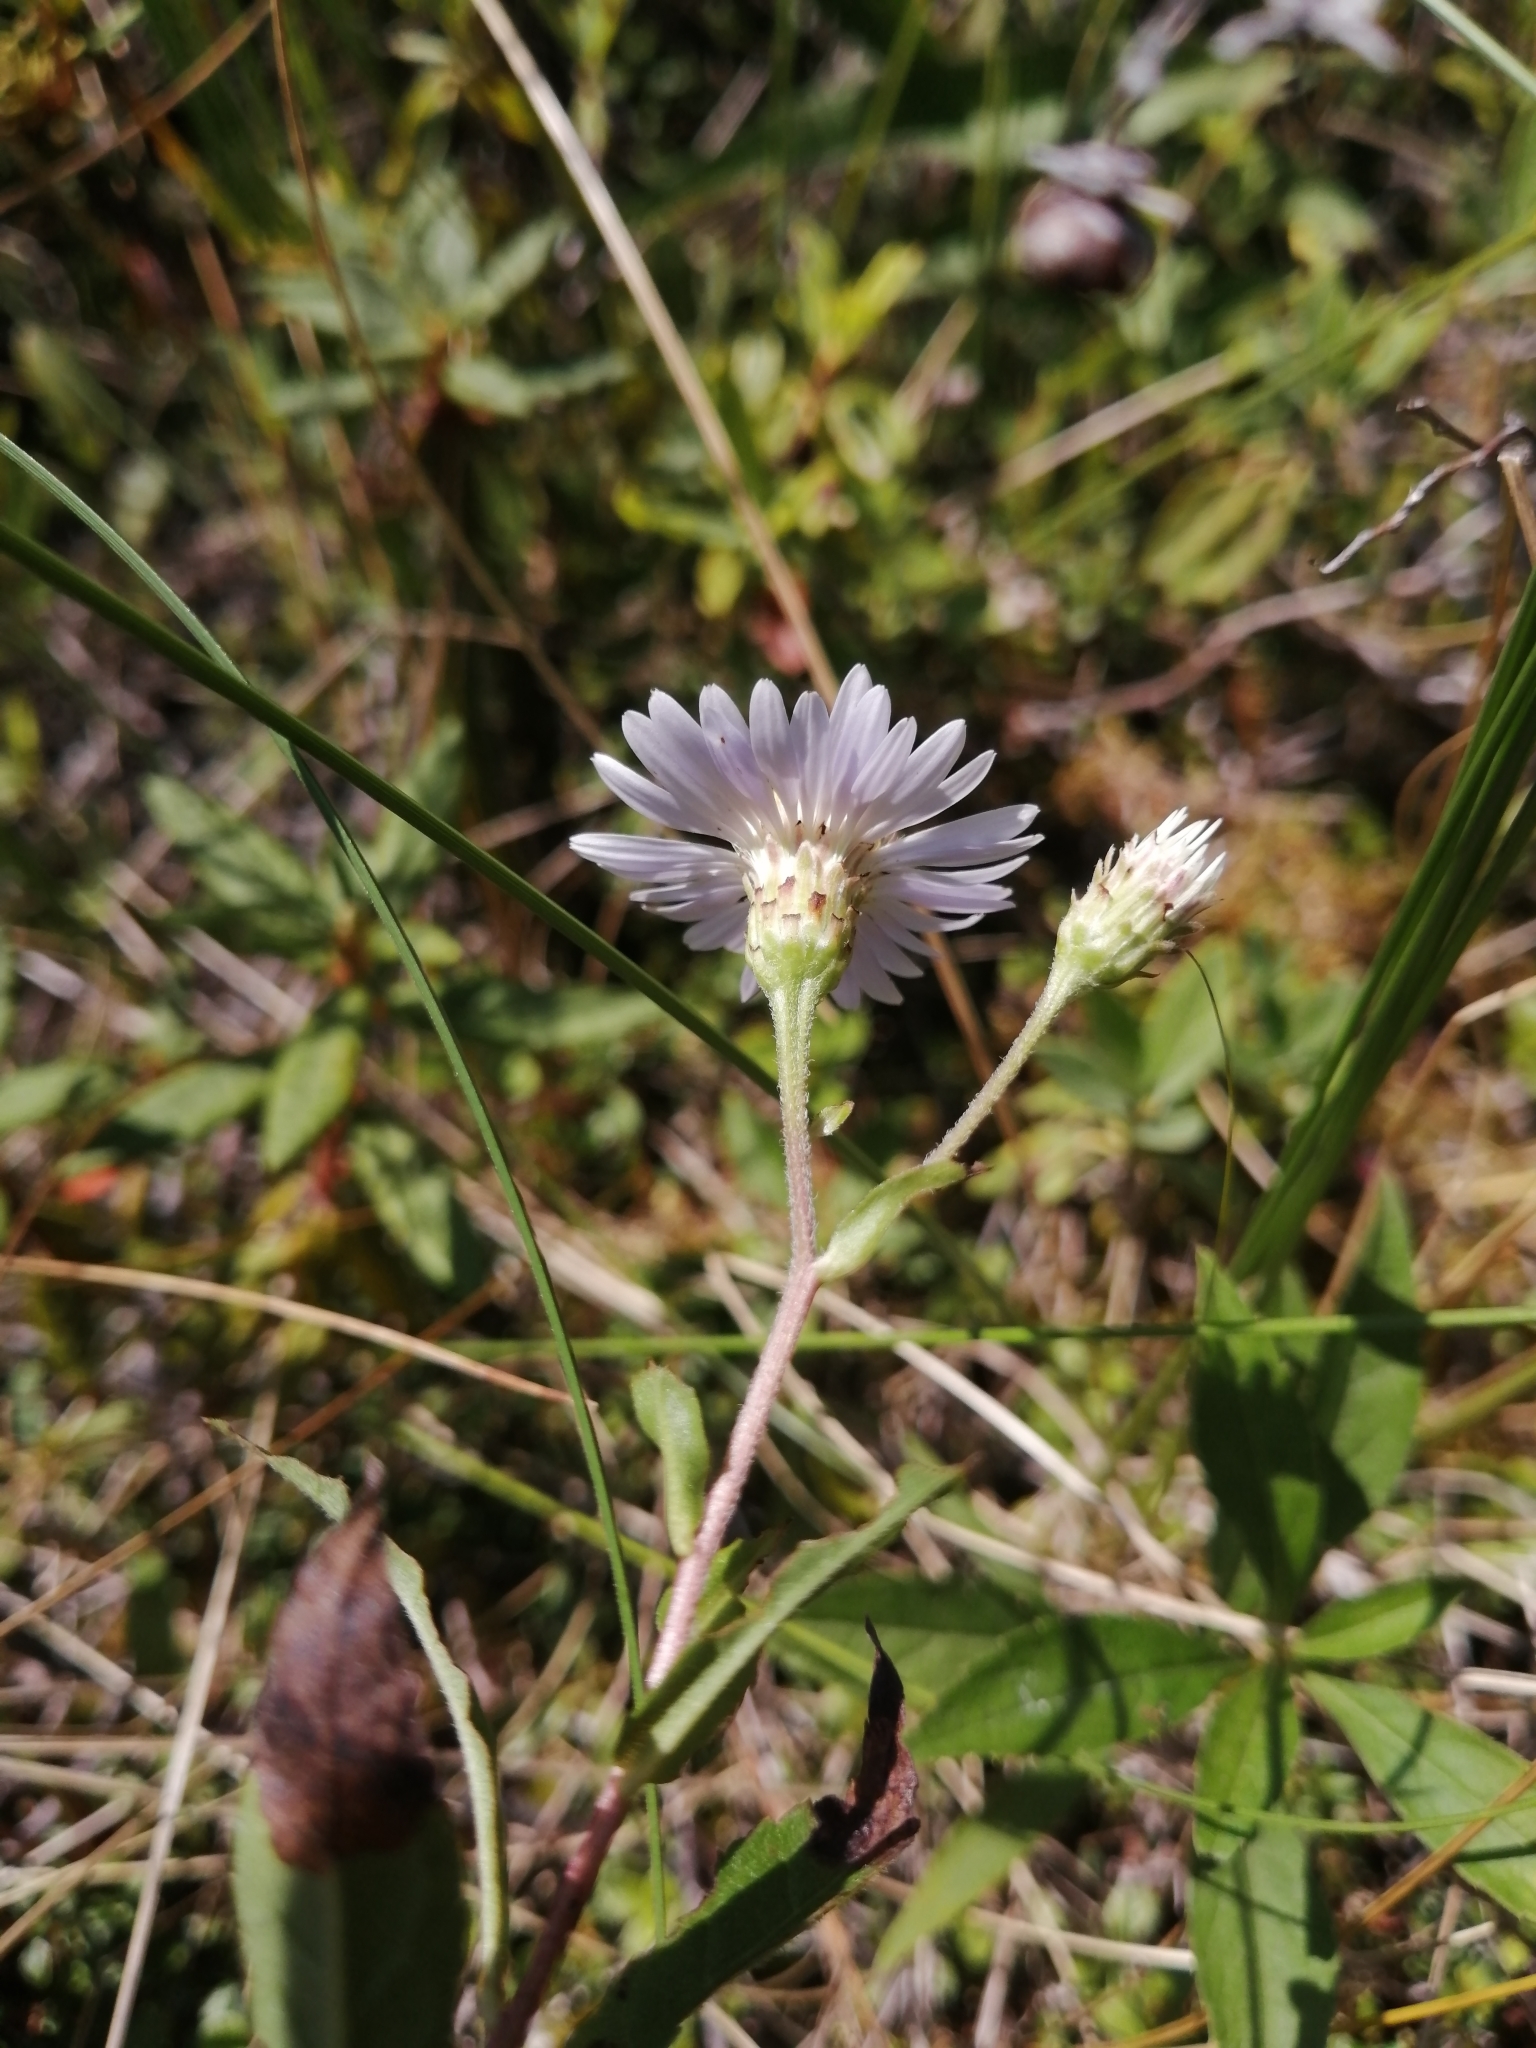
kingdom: Plantae
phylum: Tracheophyta
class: Magnoliopsida
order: Asterales
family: Asteraceae
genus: Eurybia
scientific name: Eurybia radula
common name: Low rough aster
